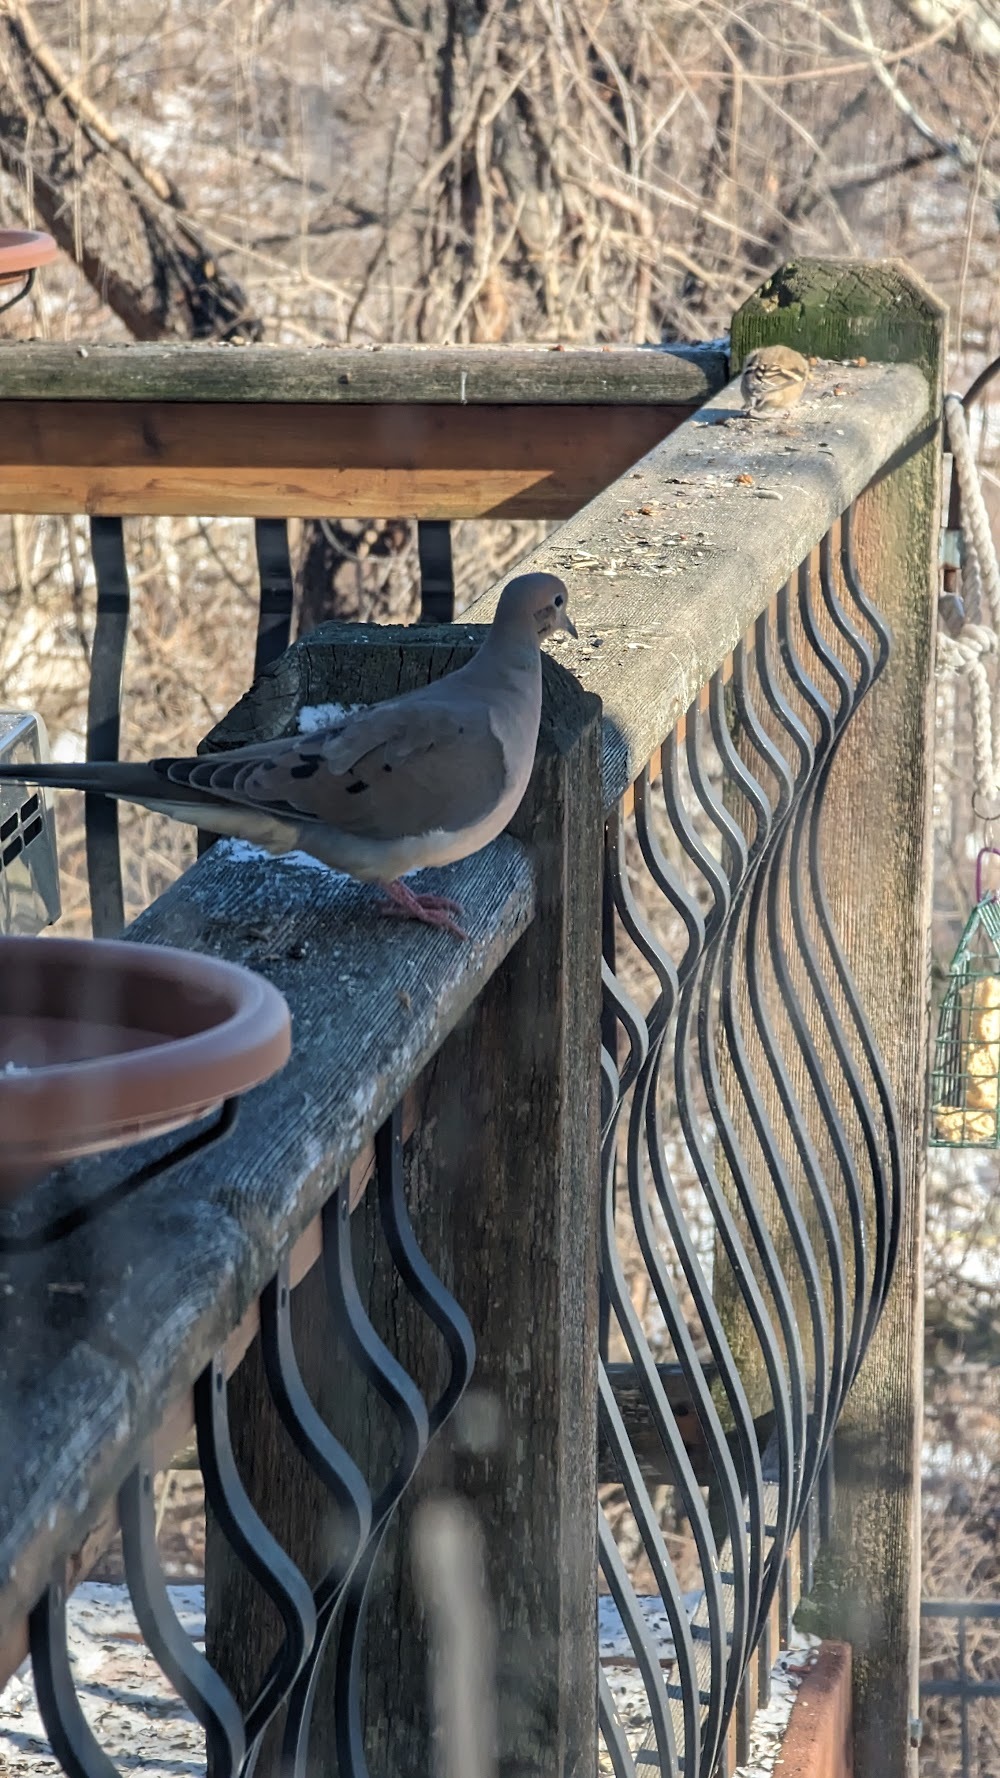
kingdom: Animalia
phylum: Chordata
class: Aves
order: Columbiformes
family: Columbidae
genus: Zenaida
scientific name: Zenaida macroura
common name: Mourning dove
